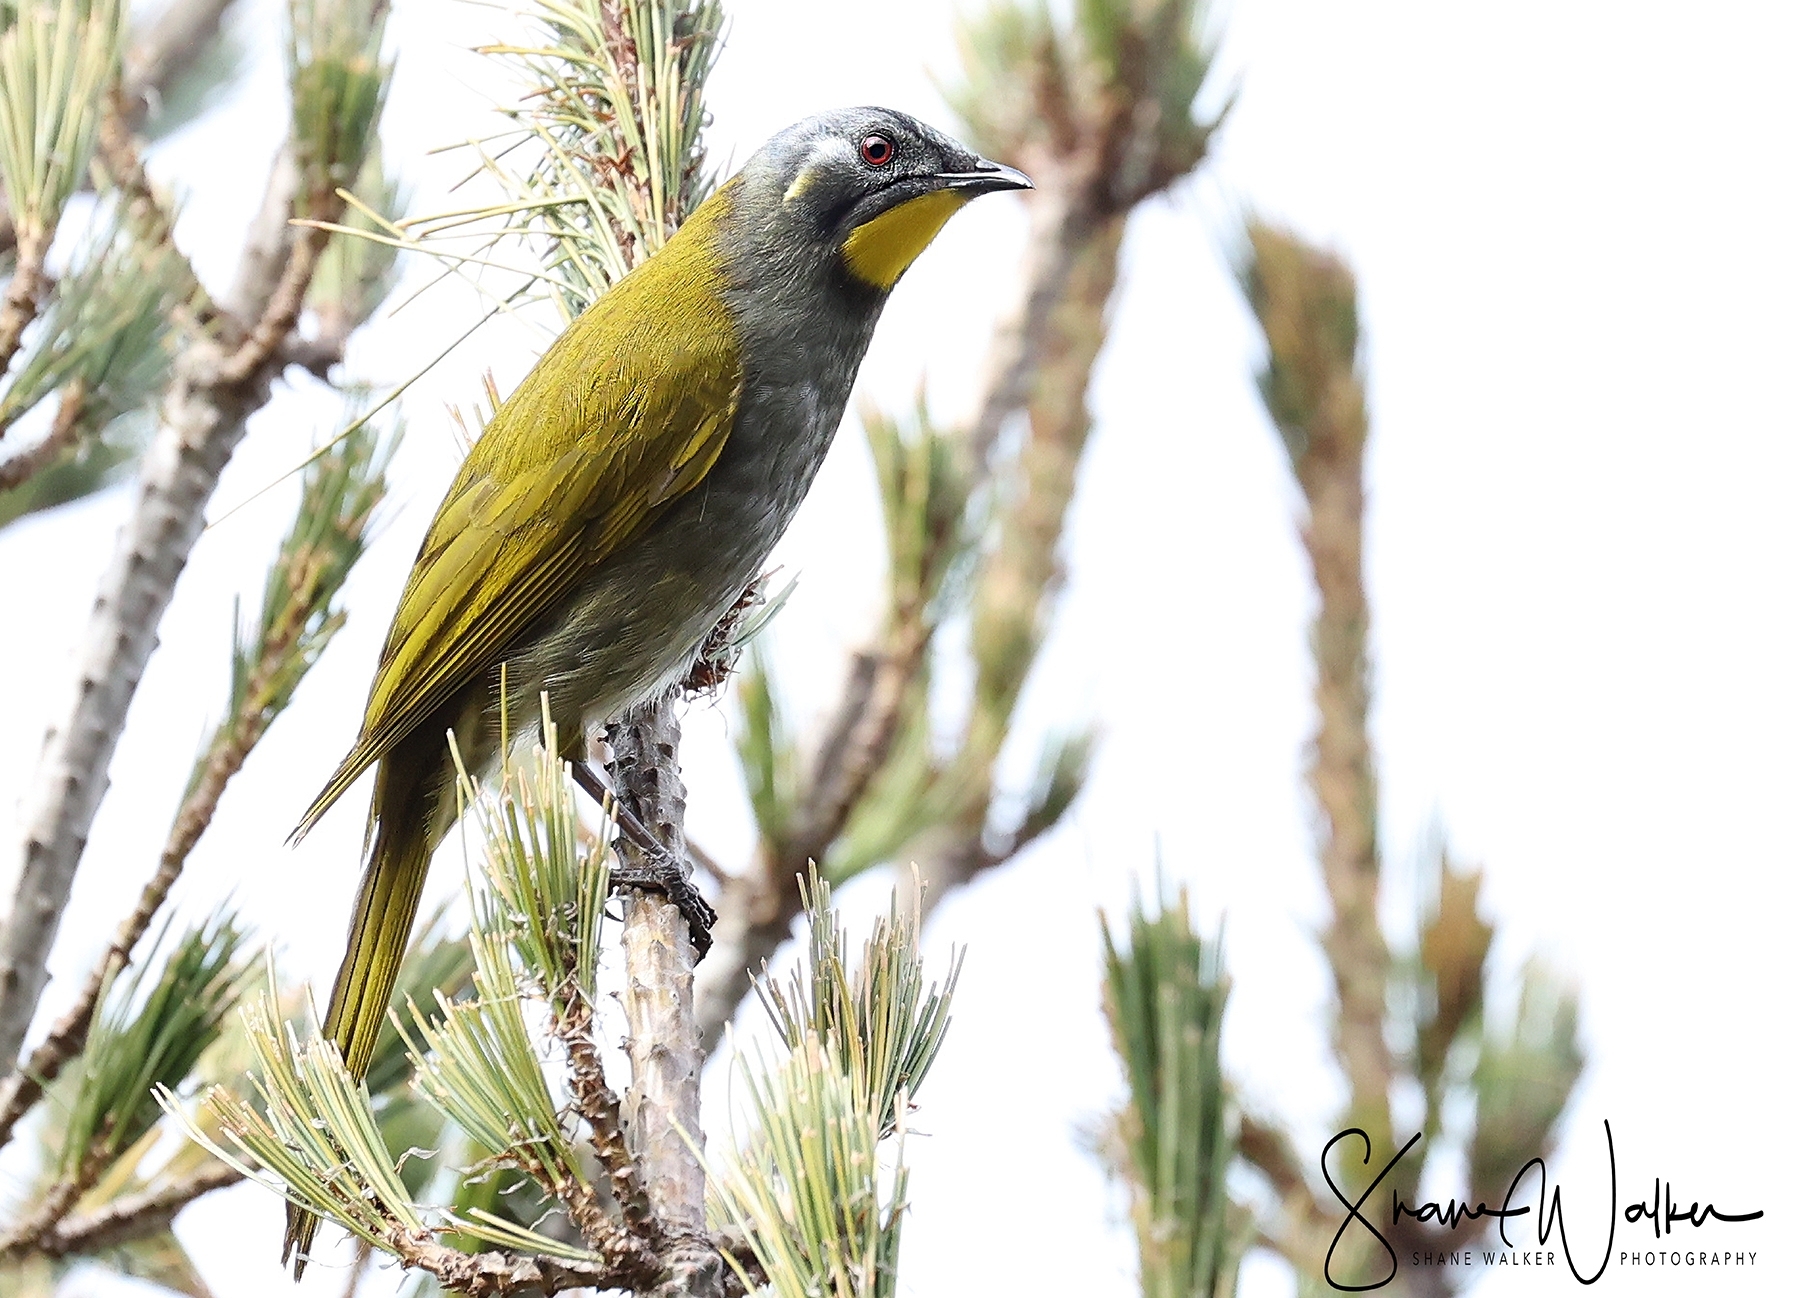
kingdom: Animalia
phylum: Chordata
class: Aves
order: Passeriformes
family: Meliphagidae
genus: Nesoptilotis
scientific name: Nesoptilotis flavicollis
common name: Yellow-throated honeyeater
